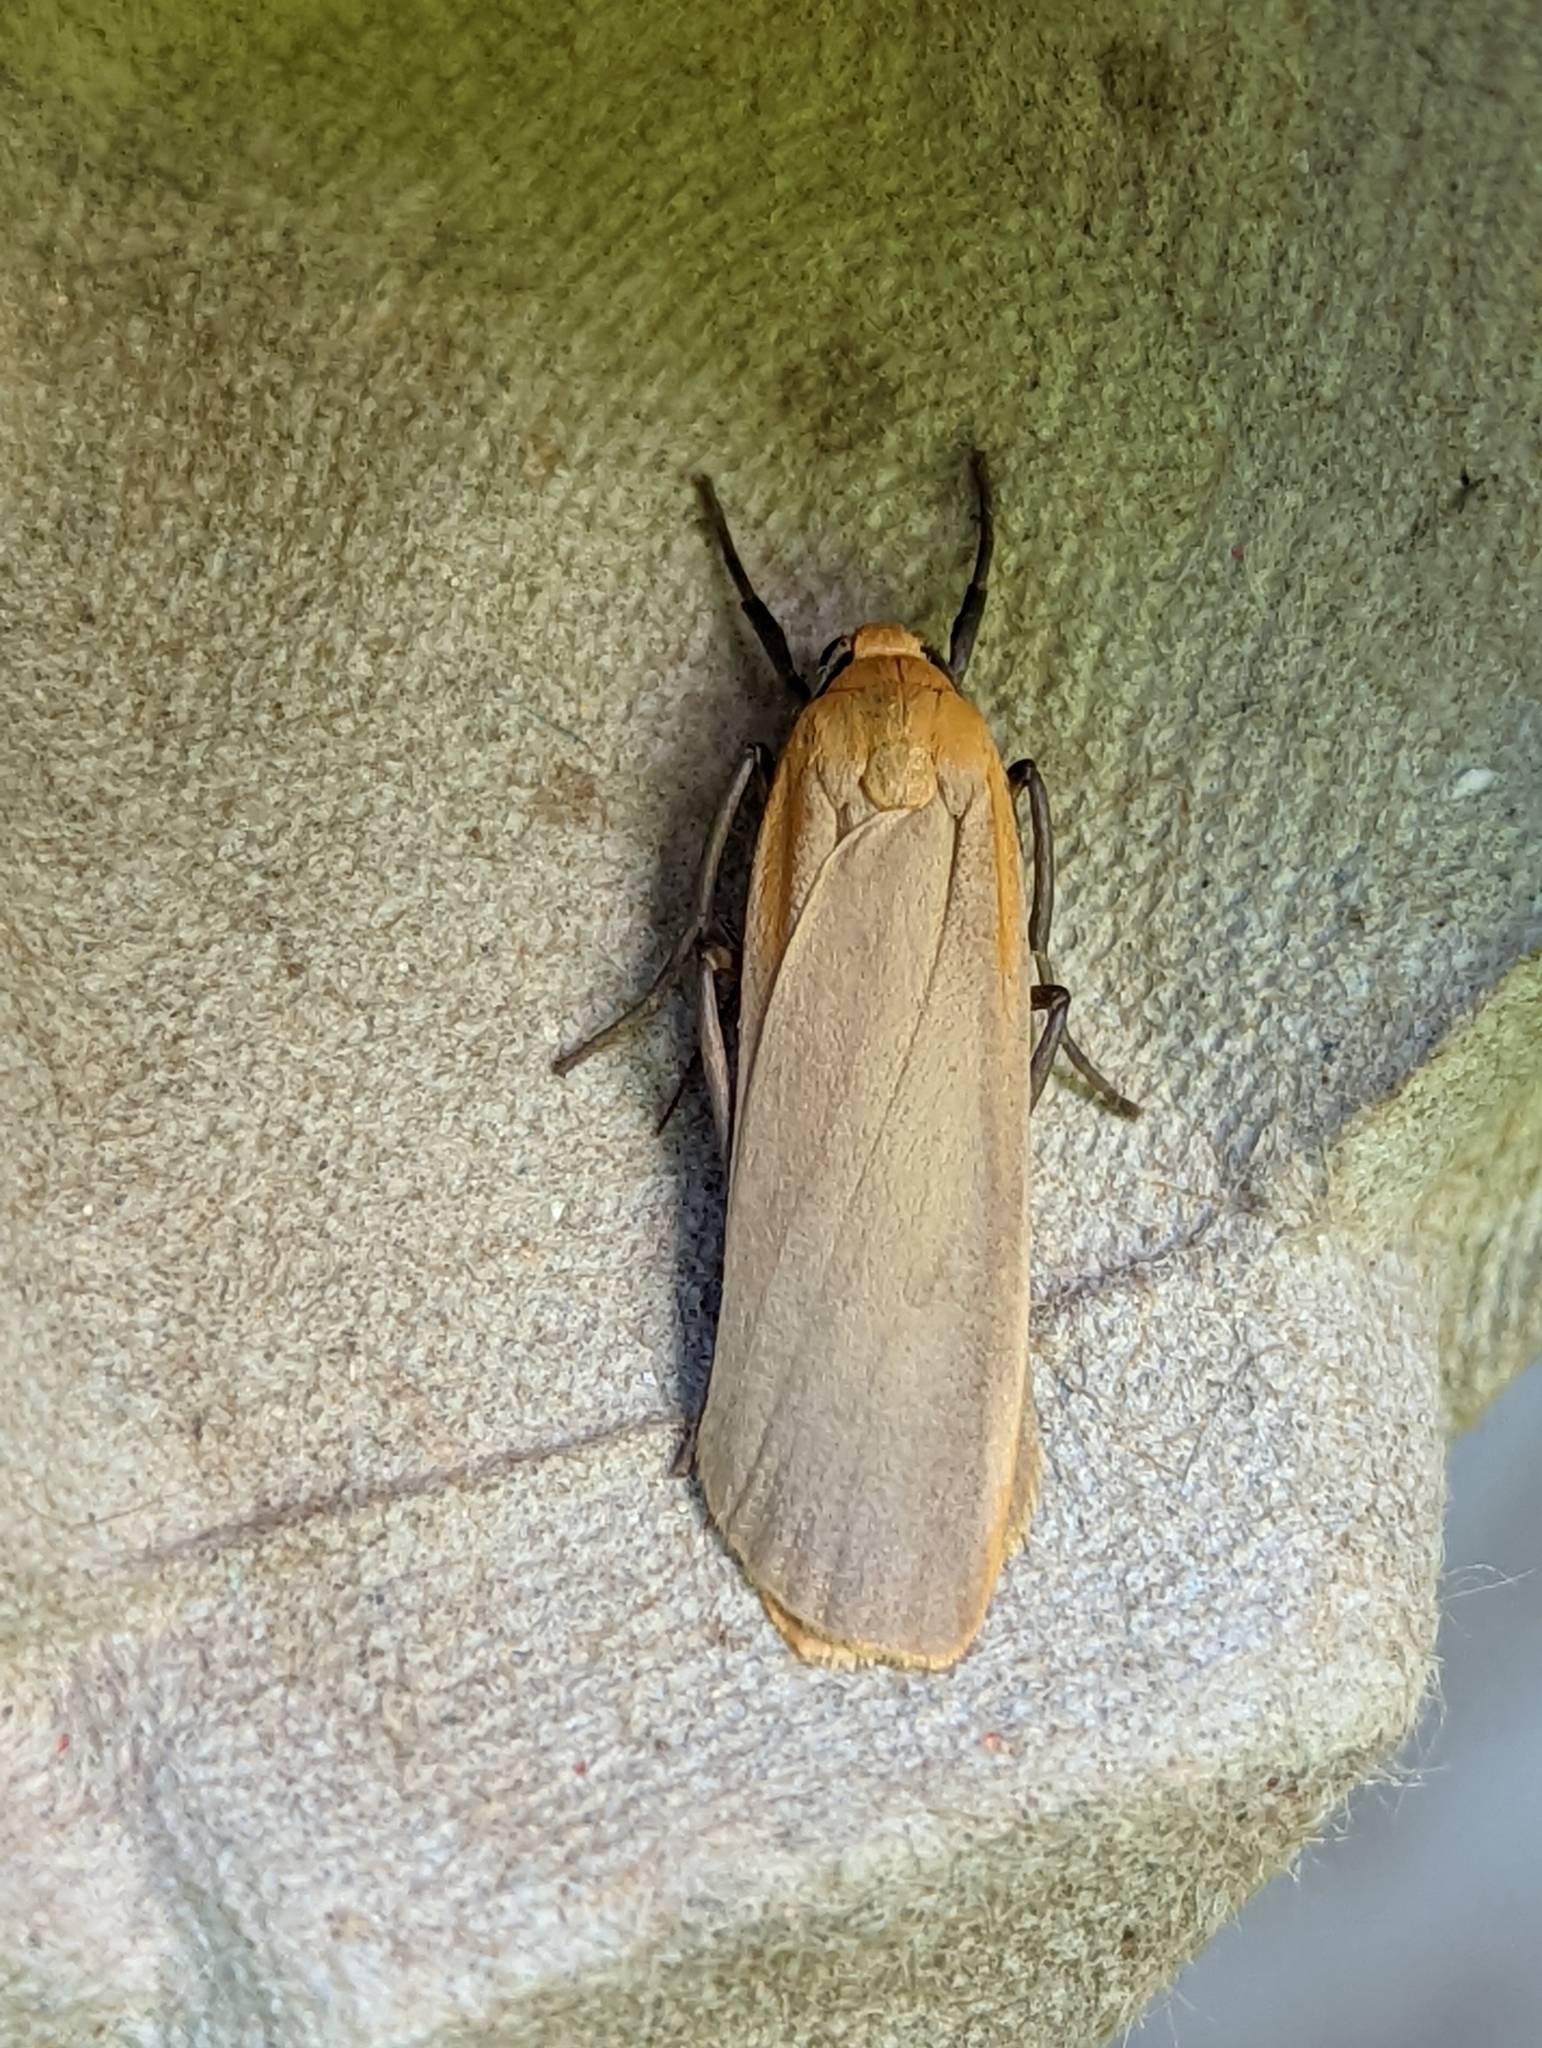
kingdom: Animalia
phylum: Arthropoda
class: Insecta
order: Lepidoptera
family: Erebidae
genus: Katha
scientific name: Katha depressa
